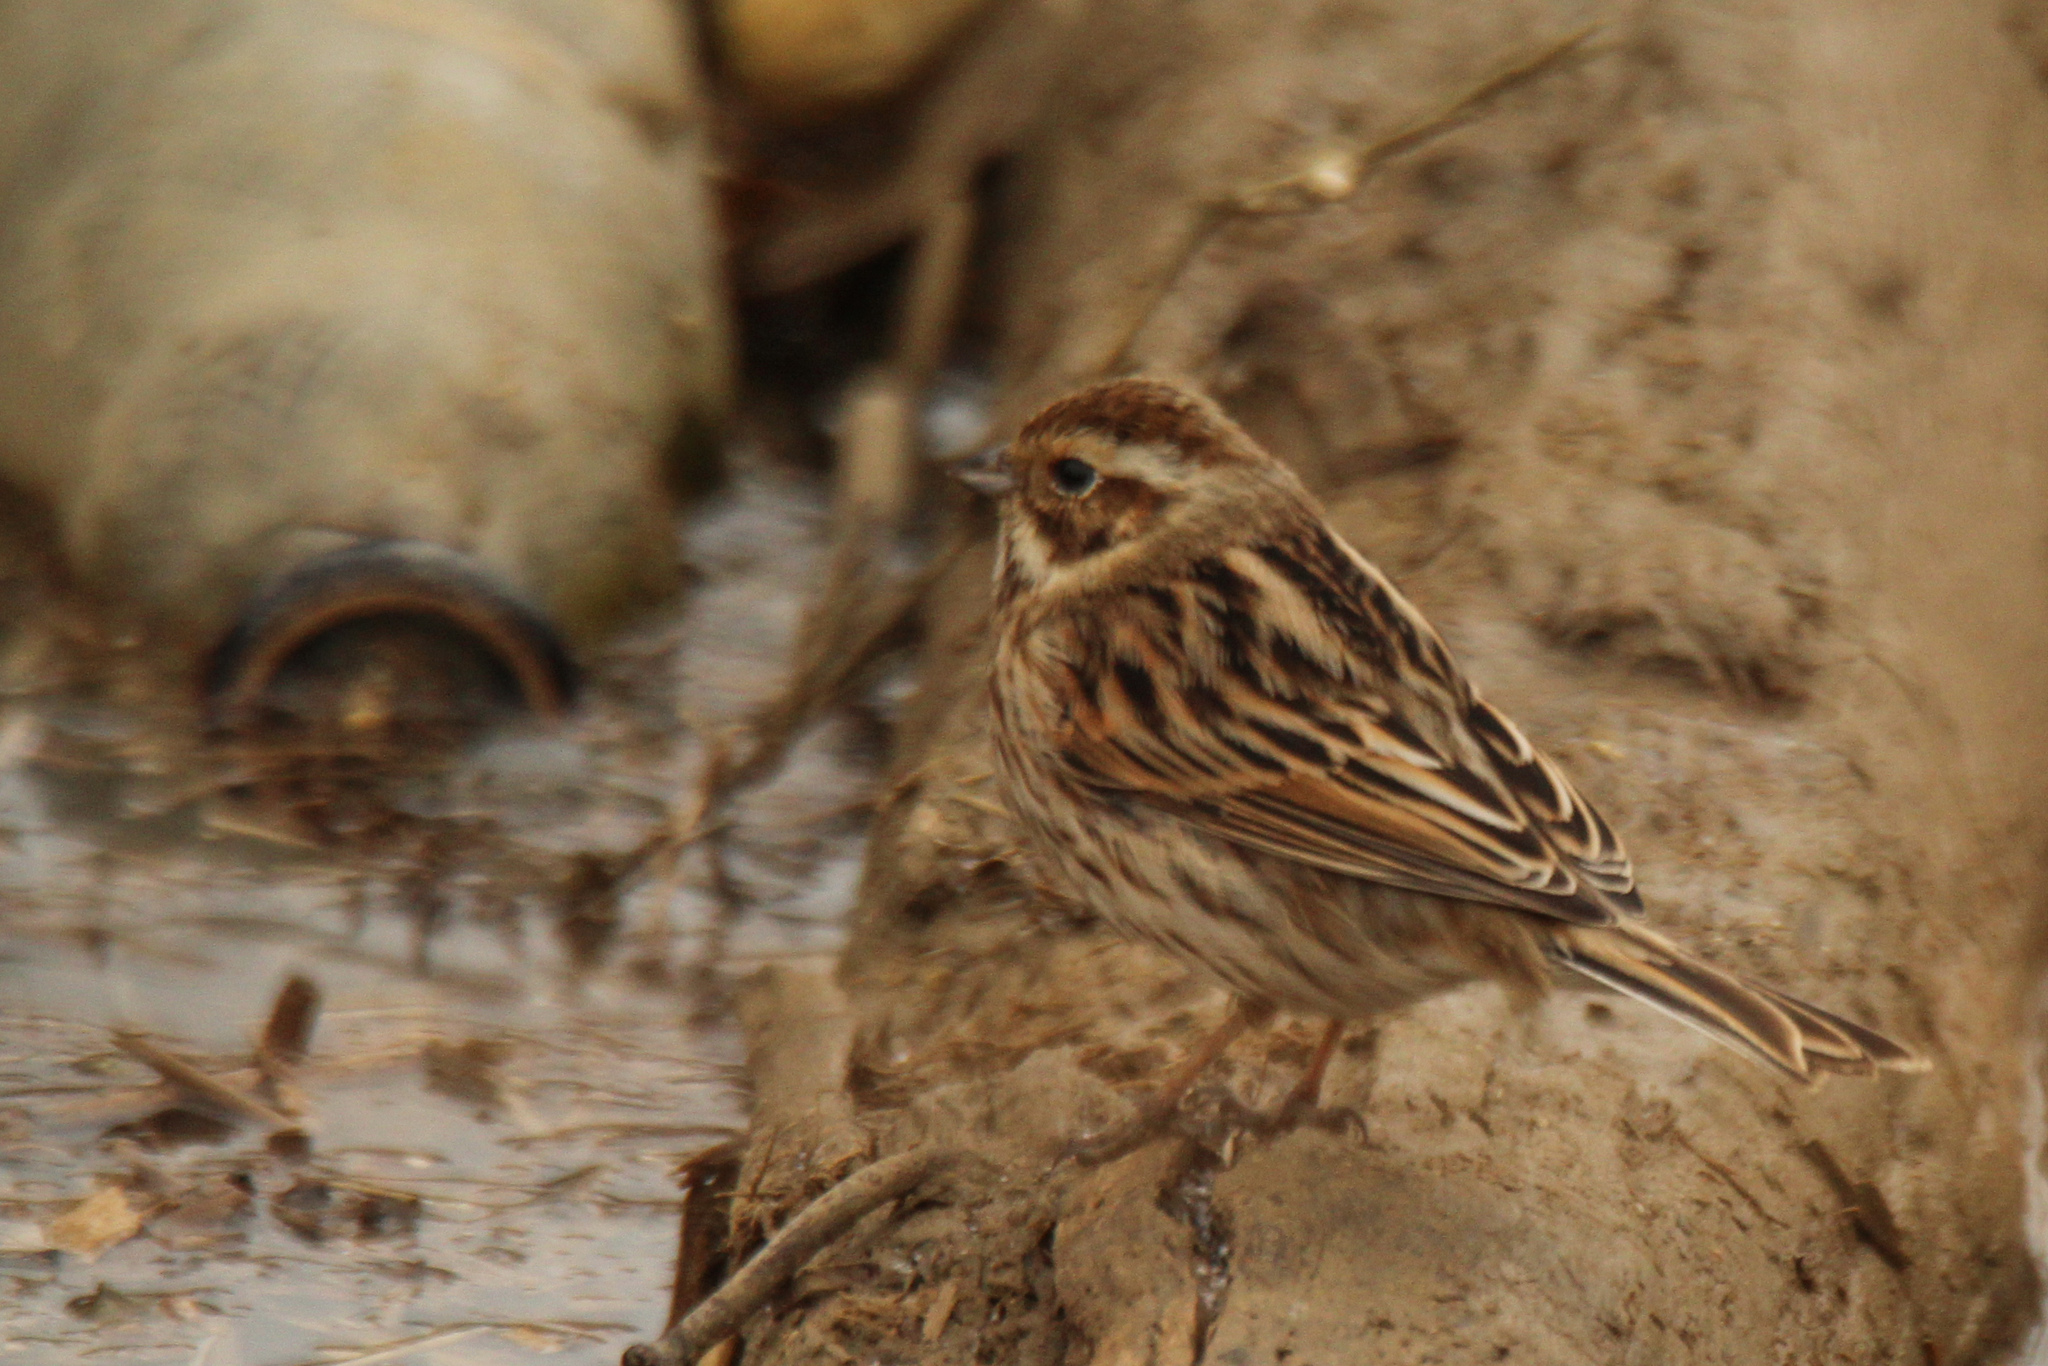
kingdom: Animalia
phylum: Chordata
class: Aves
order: Passeriformes
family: Emberizidae
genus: Emberiza
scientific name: Emberiza schoeniclus
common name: Reed bunting
